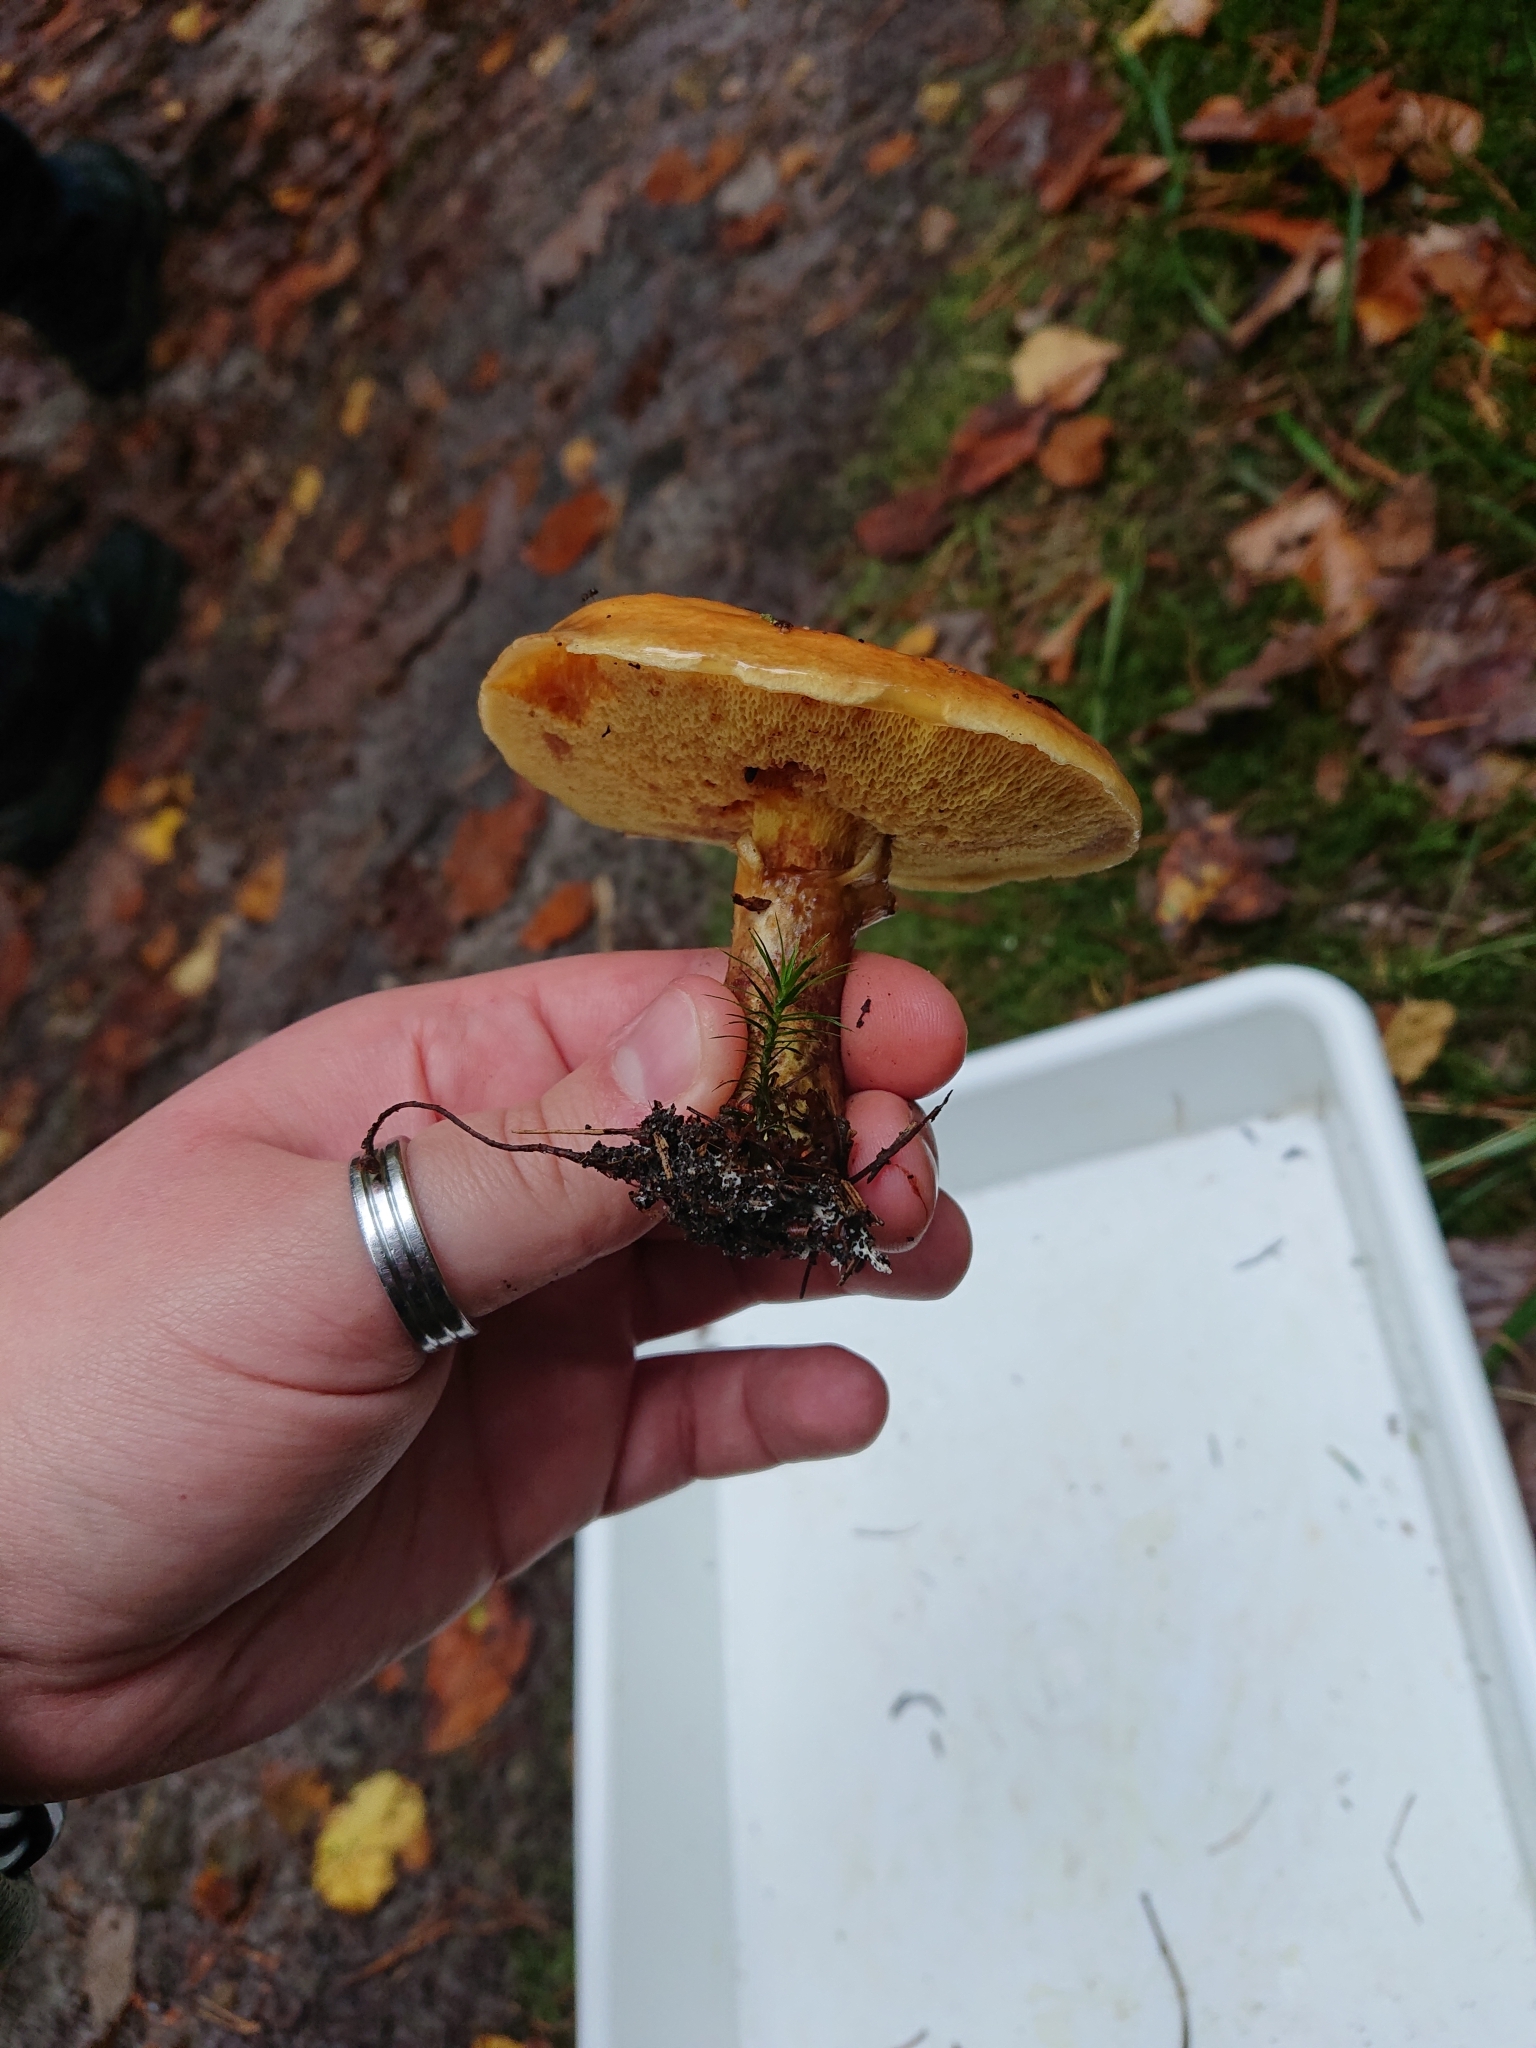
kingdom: Fungi
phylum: Basidiomycota
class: Agaricomycetes
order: Boletales
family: Suillaceae
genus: Suillus
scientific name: Suillus grevillei
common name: Larch bolete
